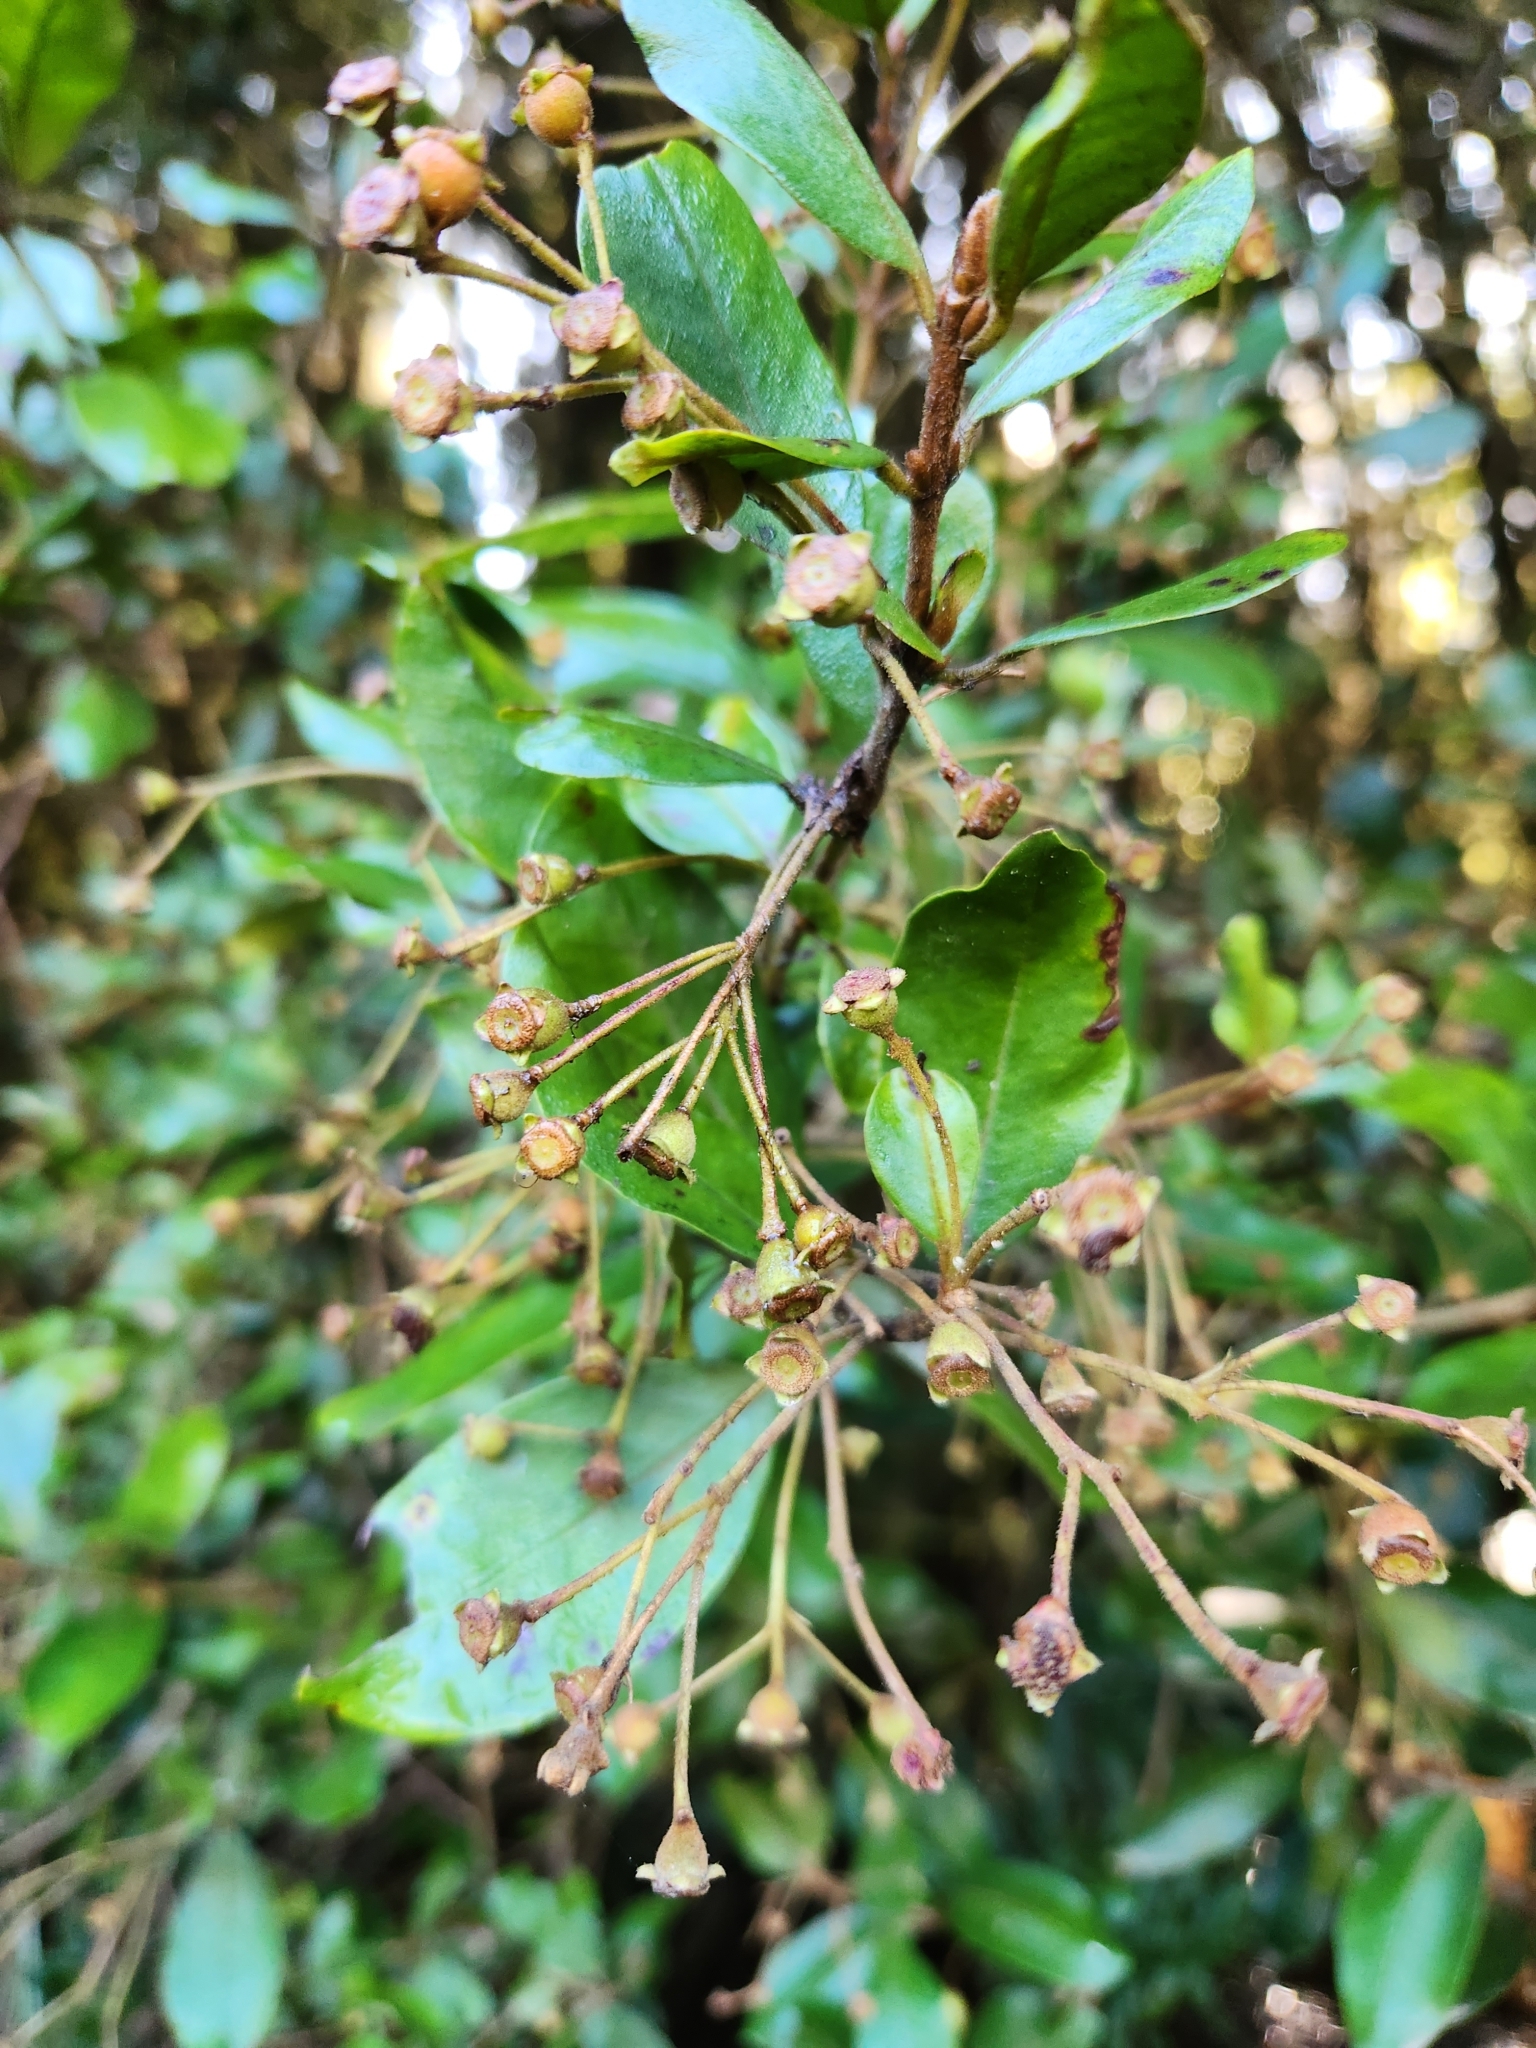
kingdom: Plantae
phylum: Tracheophyta
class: Magnoliopsida
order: Myrtales
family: Myrtaceae
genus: Blepharocalyx
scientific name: Blepharocalyx cruckshanksii
